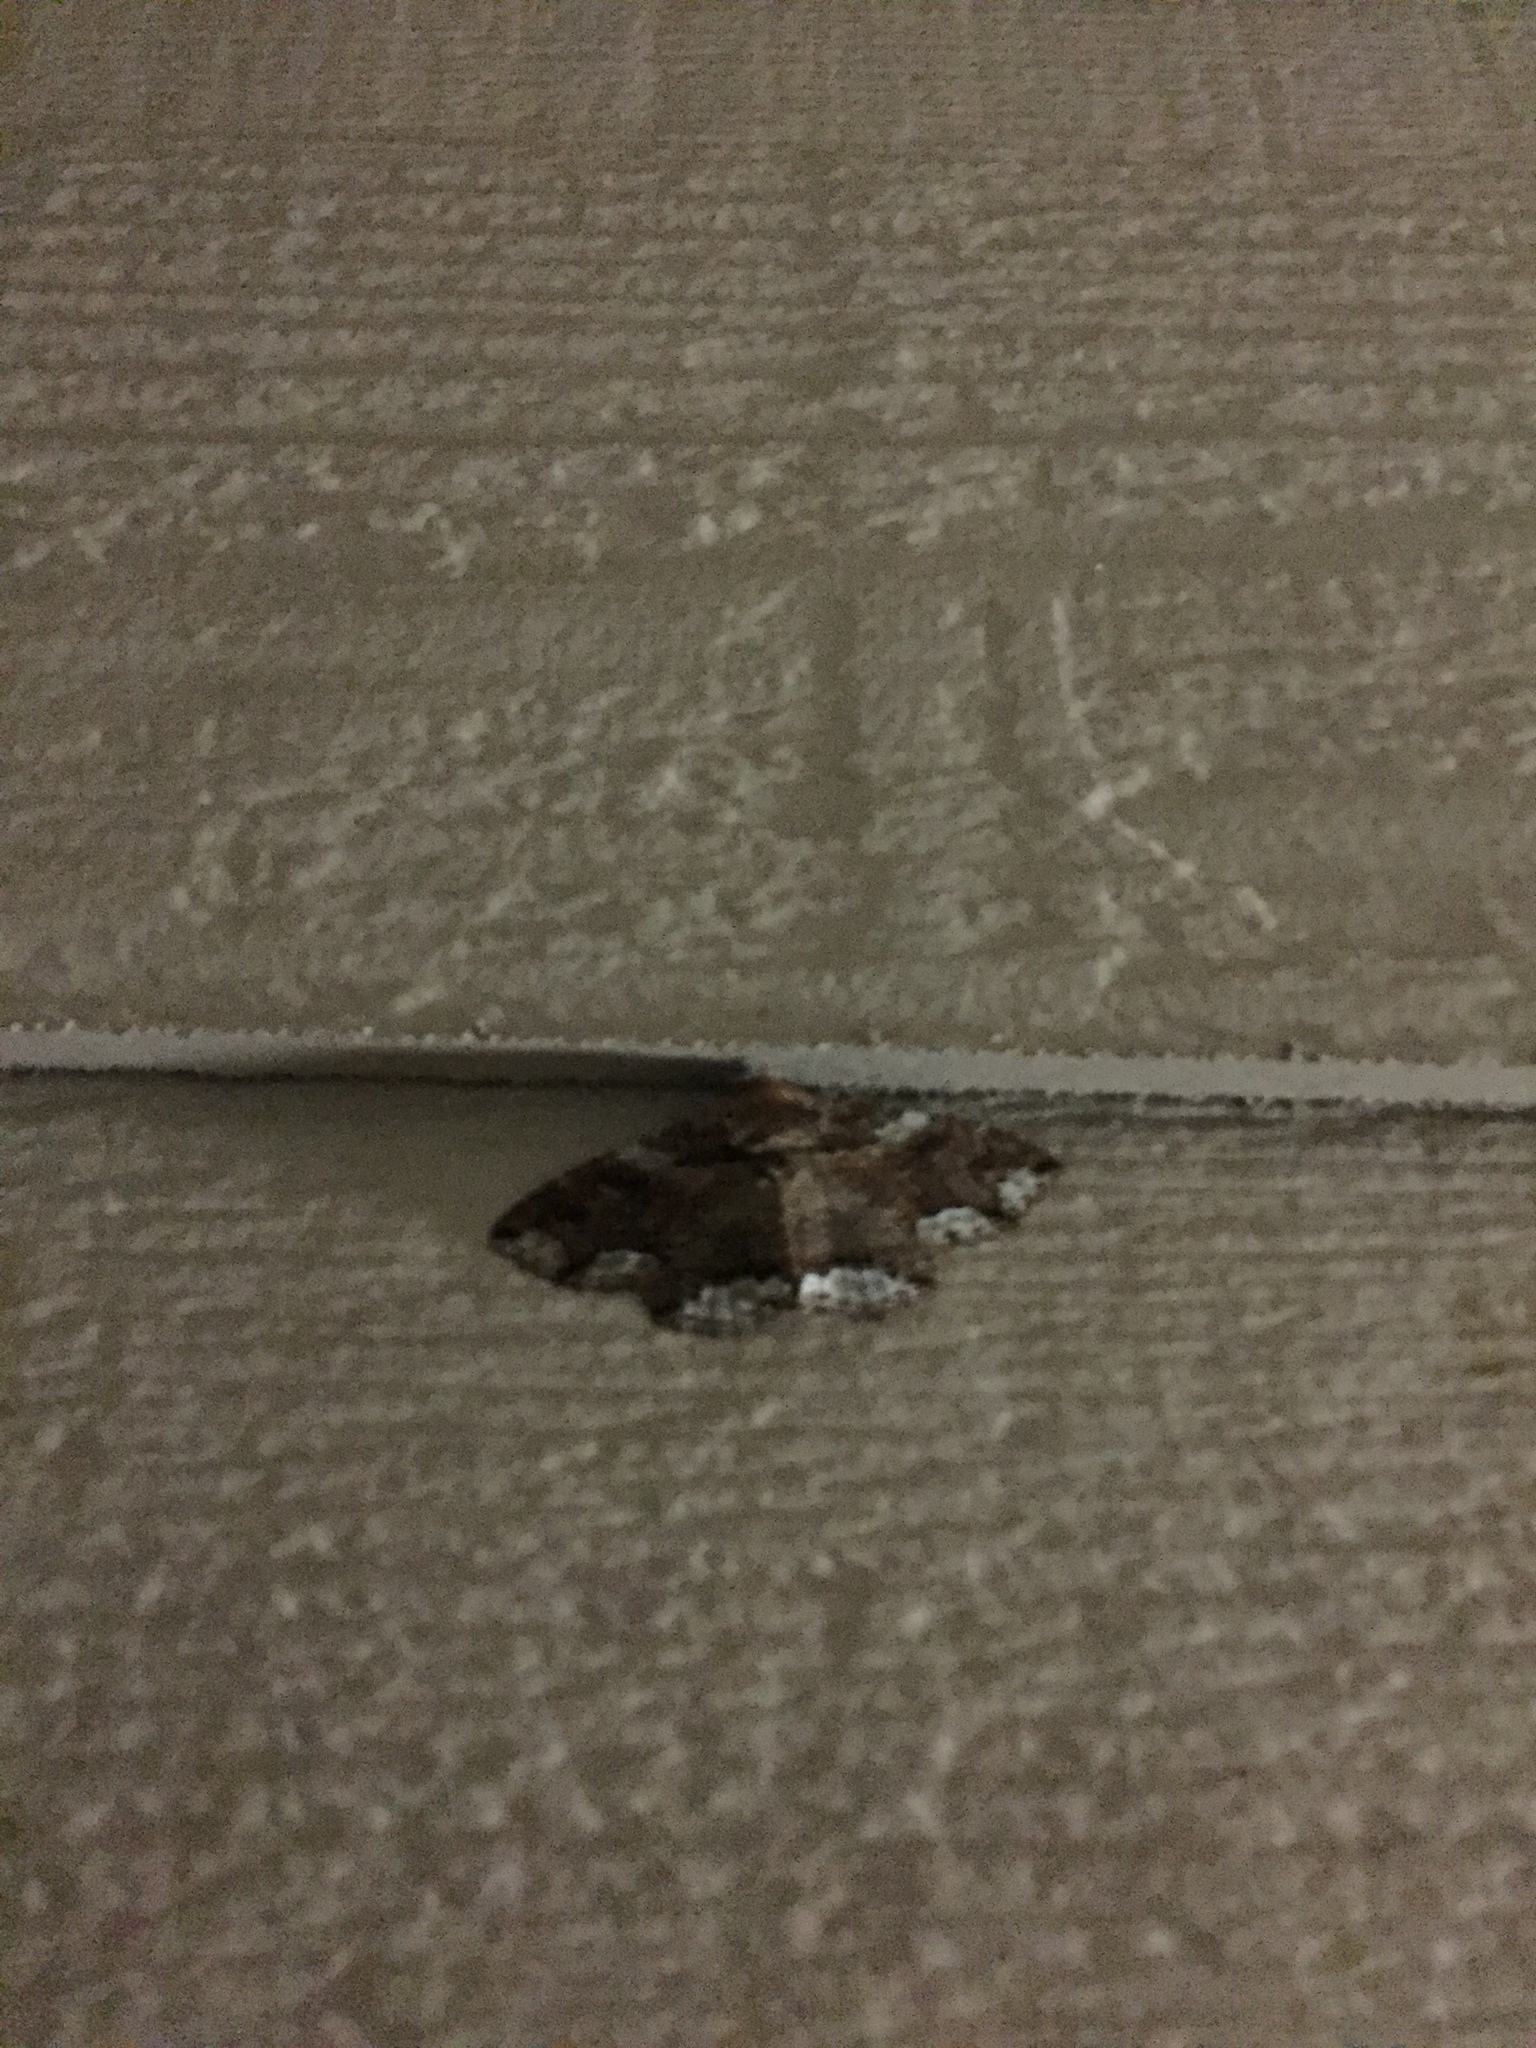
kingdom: Animalia
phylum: Arthropoda
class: Insecta
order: Lepidoptera
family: Erebidae
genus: Zale
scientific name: Zale lunata
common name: Lunate zale moth
